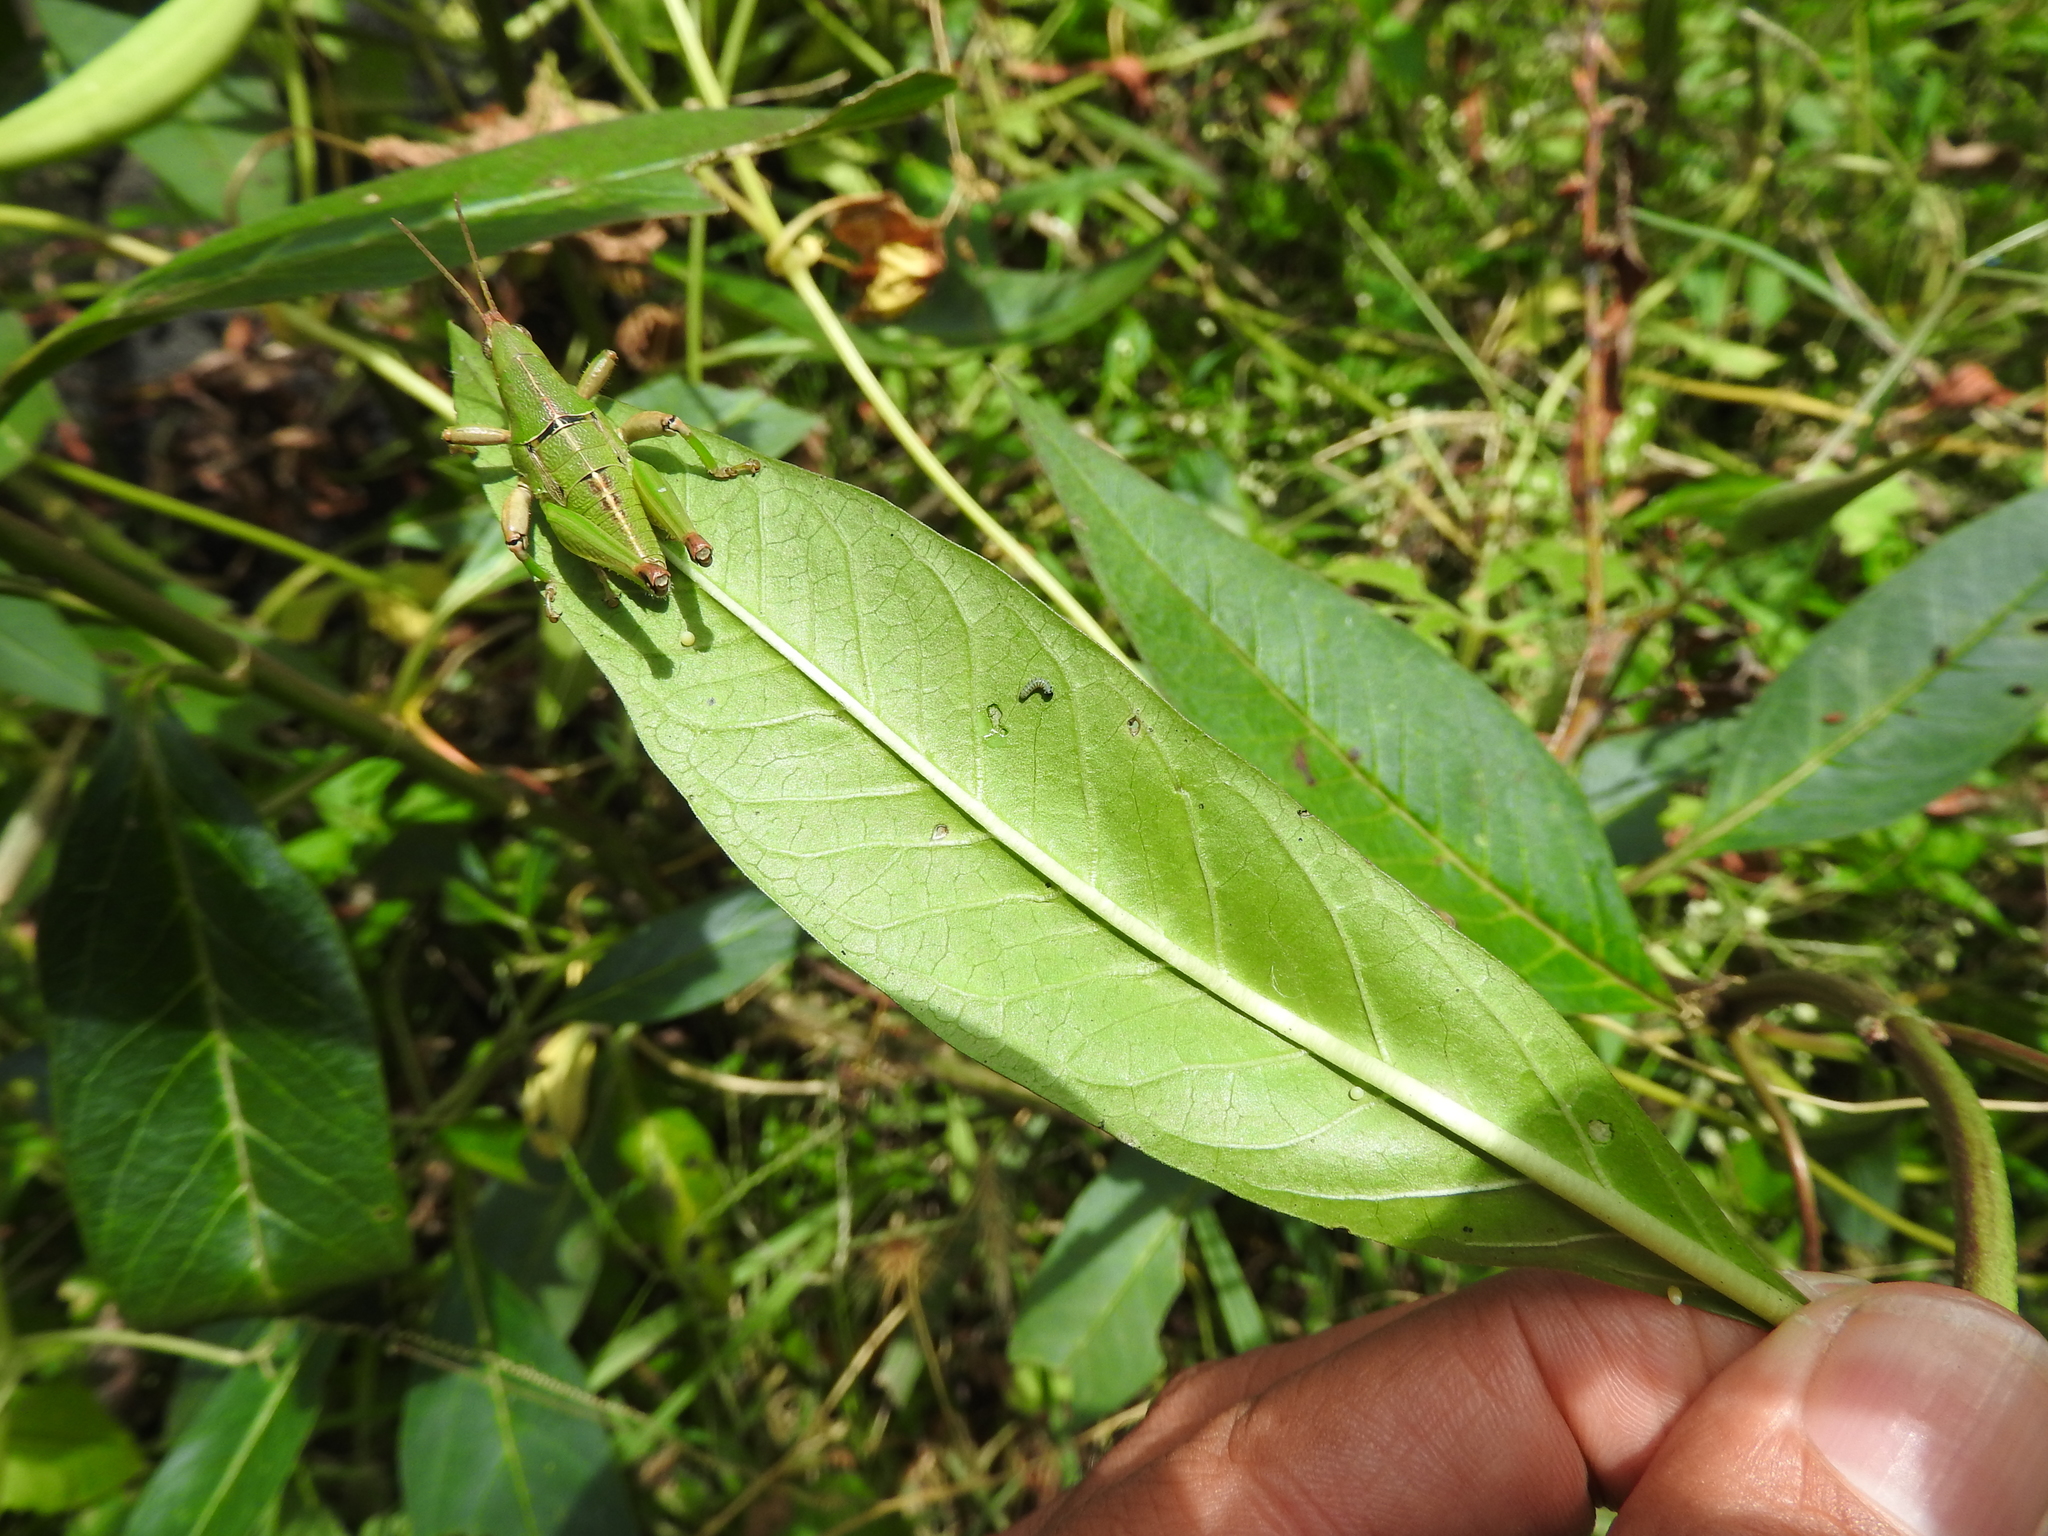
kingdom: Animalia
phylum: Arthropoda
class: Insecta
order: Lepidoptera
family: Nymphalidae
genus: Danaus
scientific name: Danaus plexippus
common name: Monarch
